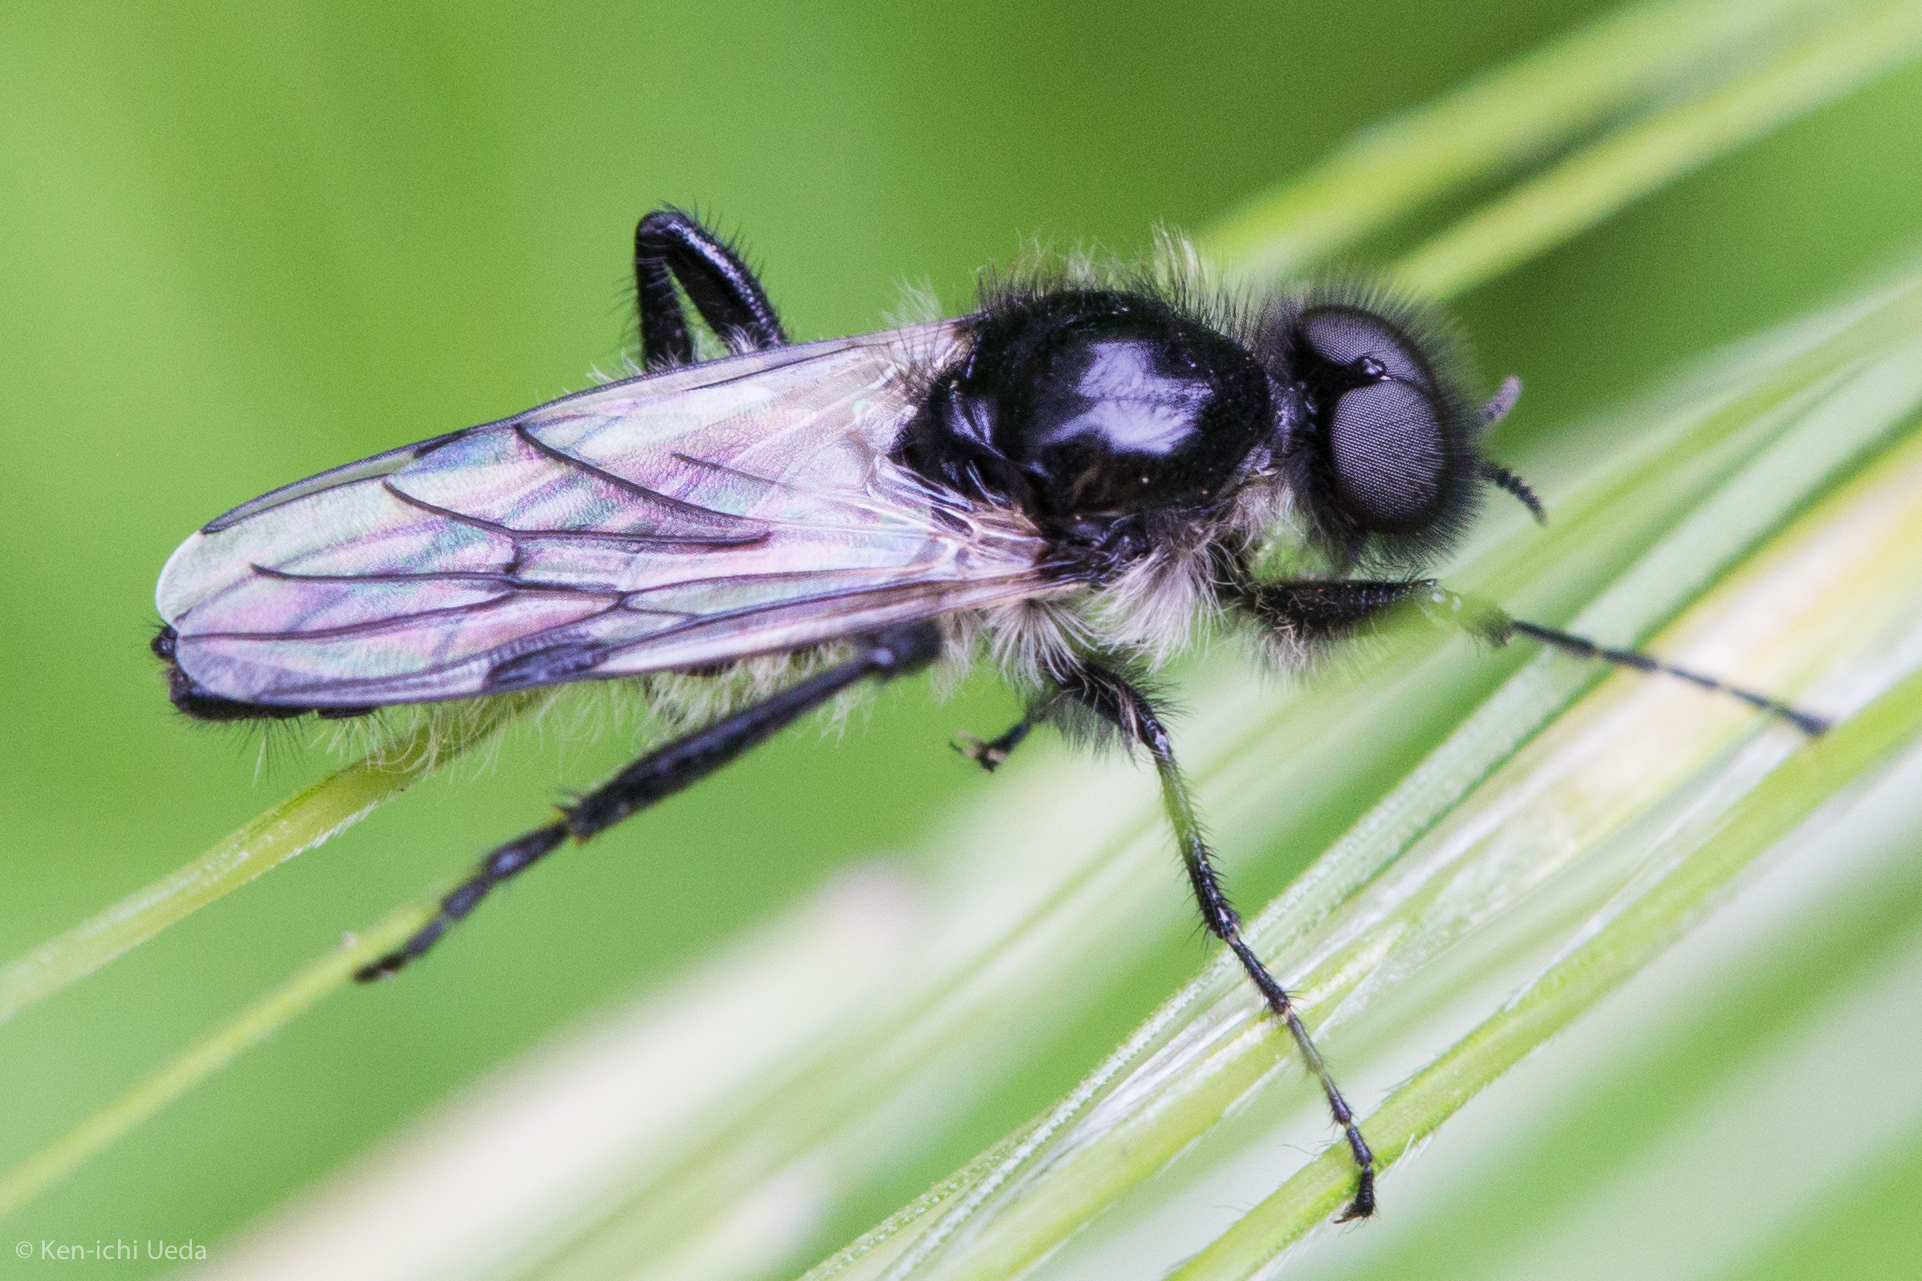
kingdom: Animalia
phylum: Arthropoda
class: Insecta
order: Diptera
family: Bibionidae
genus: Bibio
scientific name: Bibio albipennis
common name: White-winged march fly
